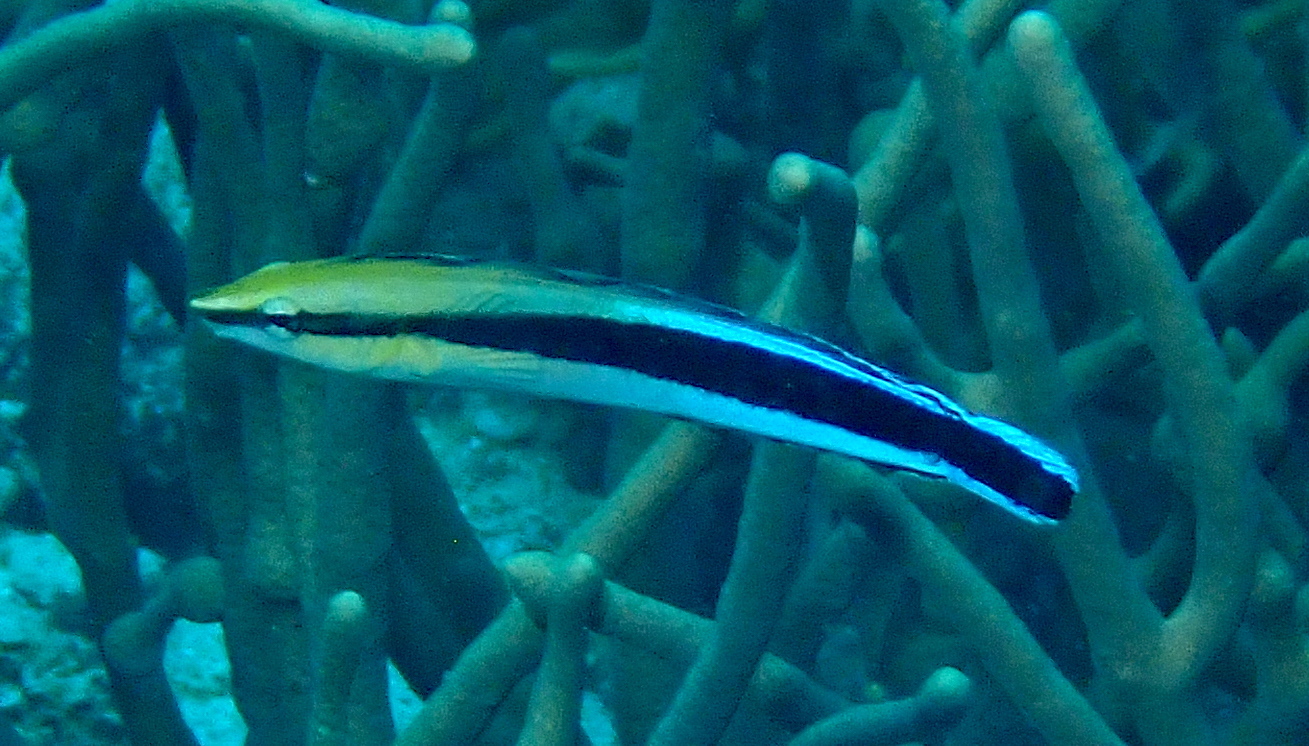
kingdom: Animalia
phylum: Chordata
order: Perciformes
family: Blenniidae
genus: Aspidontus
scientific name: Aspidontus taeniatus
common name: False cleanerfish
